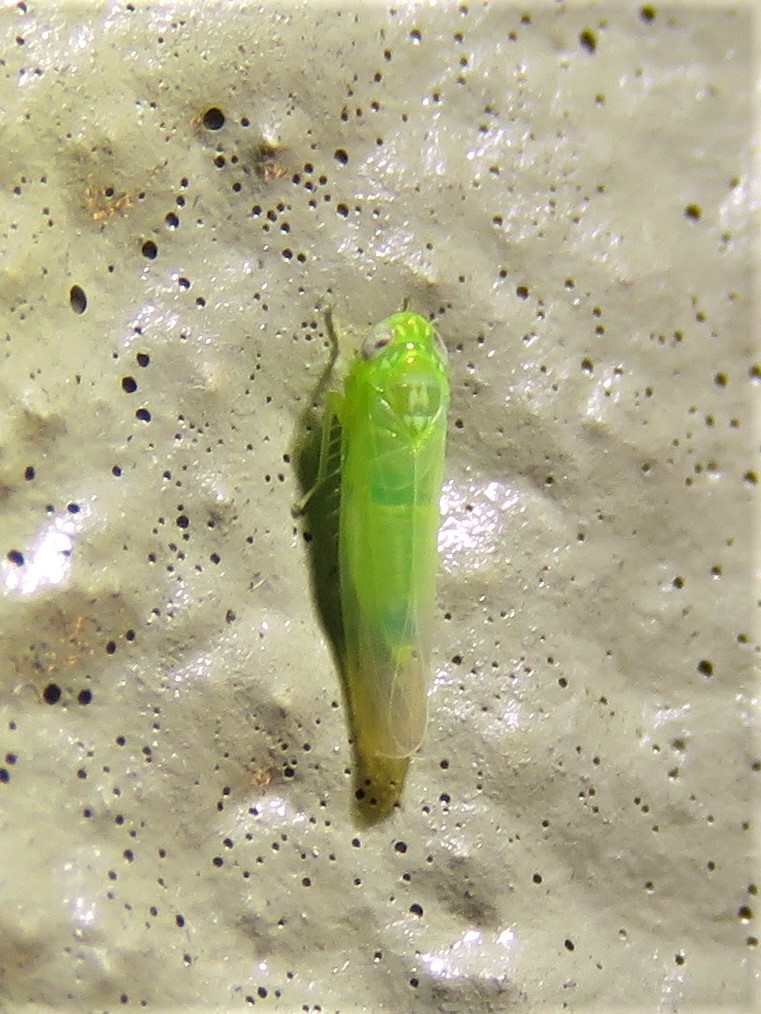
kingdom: Animalia
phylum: Arthropoda
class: Insecta
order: Hemiptera
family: Cicadellidae
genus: Empoasca
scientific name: Empoasca fabae
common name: Potato leafhopper
